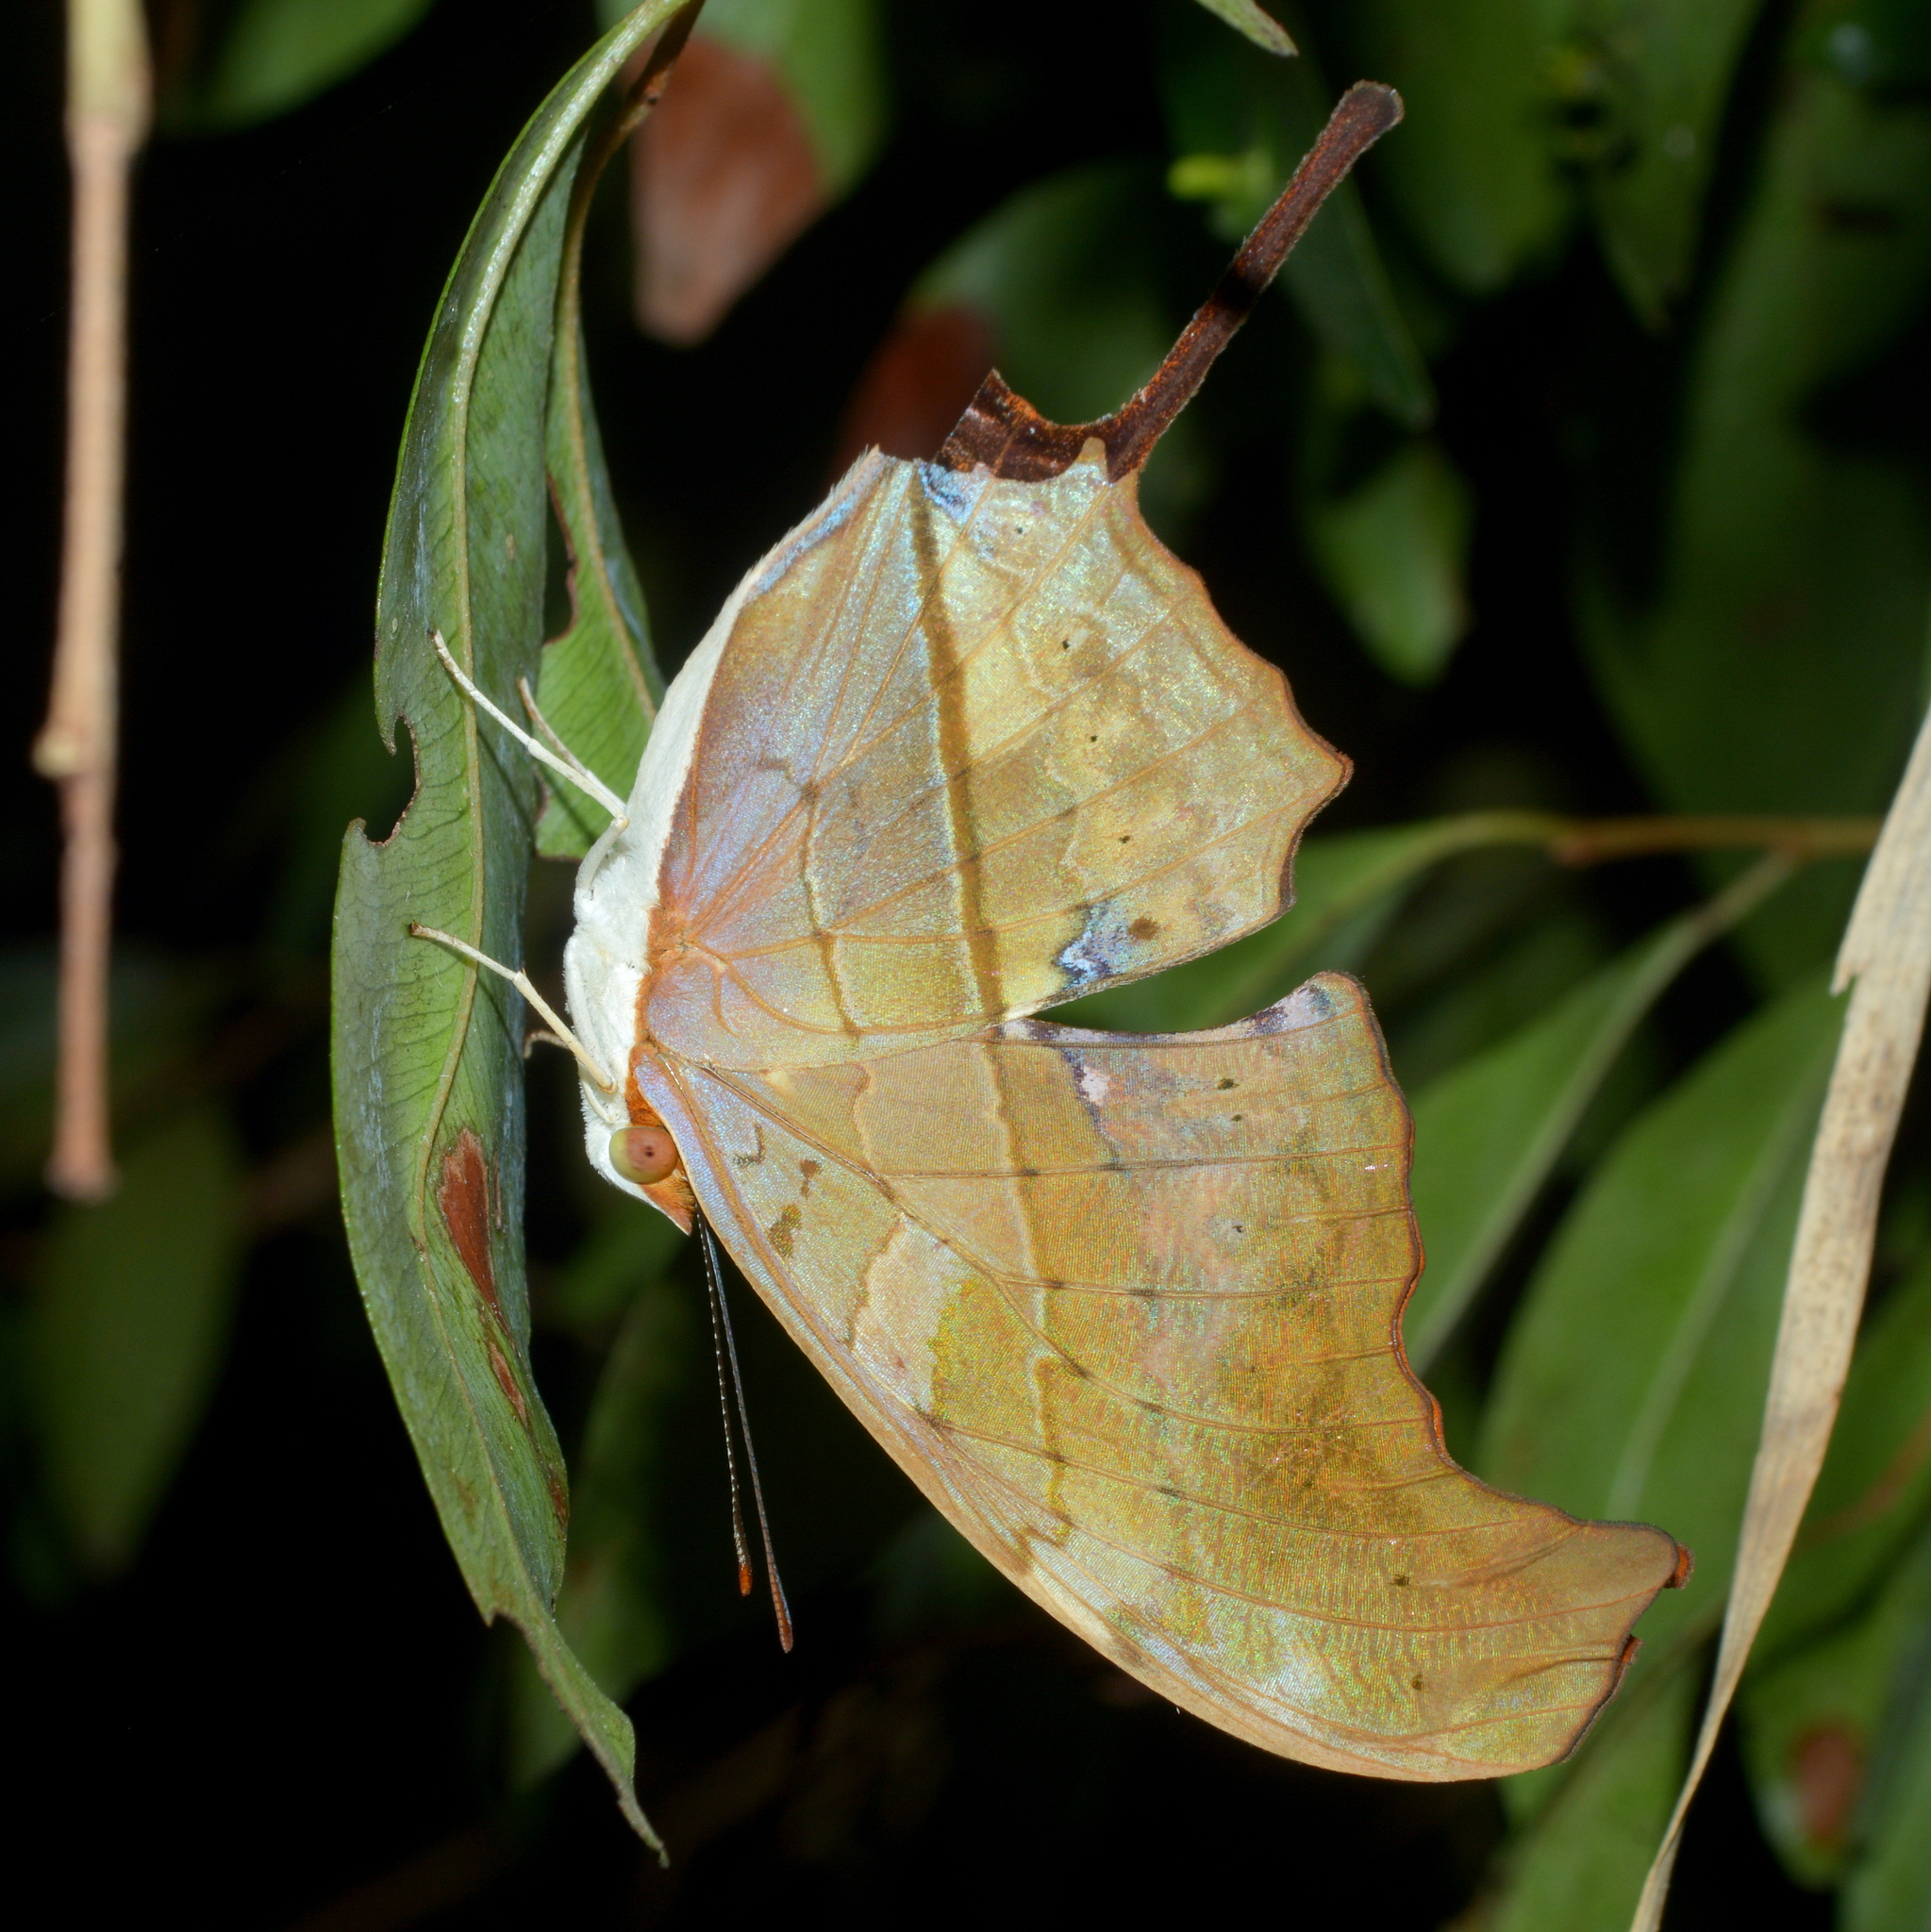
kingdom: Animalia
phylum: Arthropoda
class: Insecta
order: Lepidoptera
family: Nymphalidae
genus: Marpesia
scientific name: Marpesia petreus
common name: Red dagger wing
